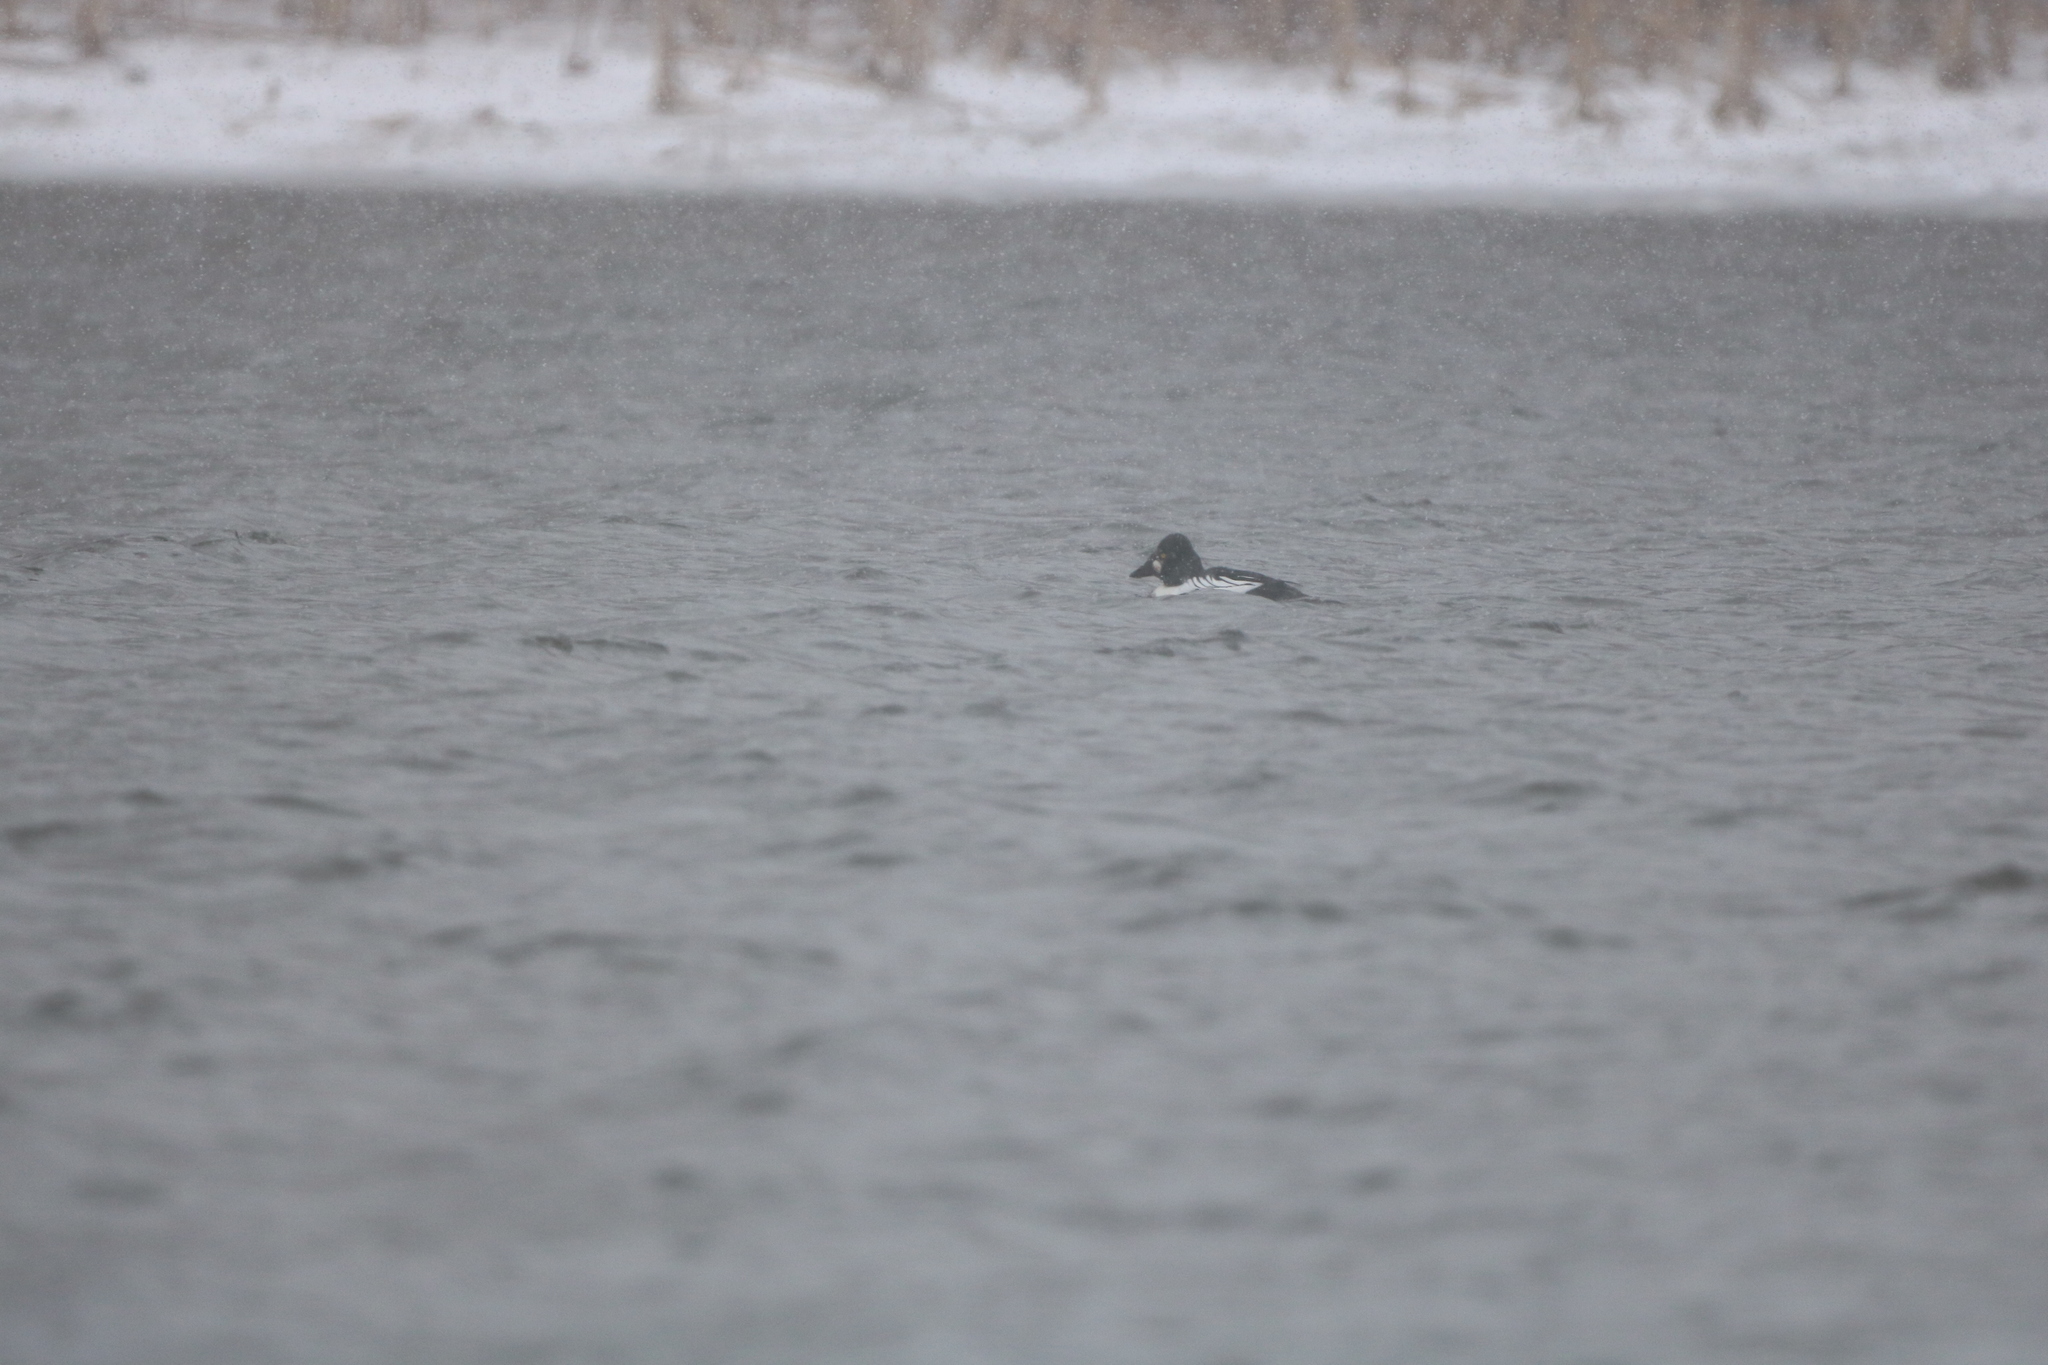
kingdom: Animalia
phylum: Chordata
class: Aves
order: Anseriformes
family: Anatidae
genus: Bucephala
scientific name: Bucephala clangula
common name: Common goldeneye
